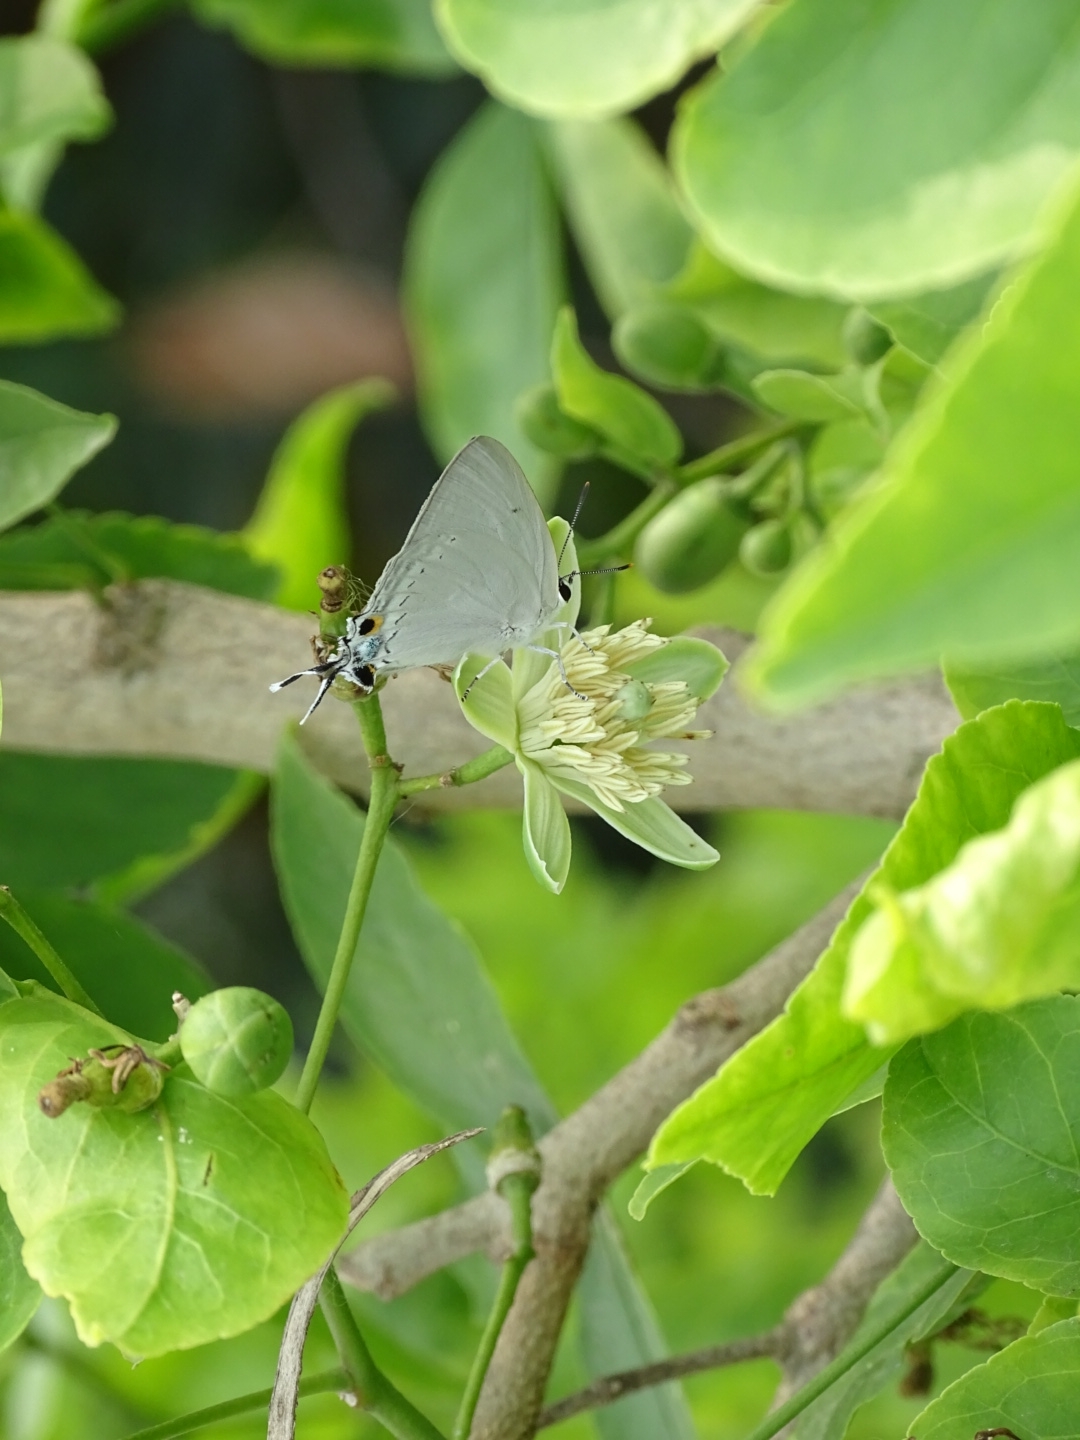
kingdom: Animalia
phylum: Arthropoda
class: Insecta
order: Lepidoptera
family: Lycaenidae
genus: Tajuria
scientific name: Tajuria cippus
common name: Peacock royal
